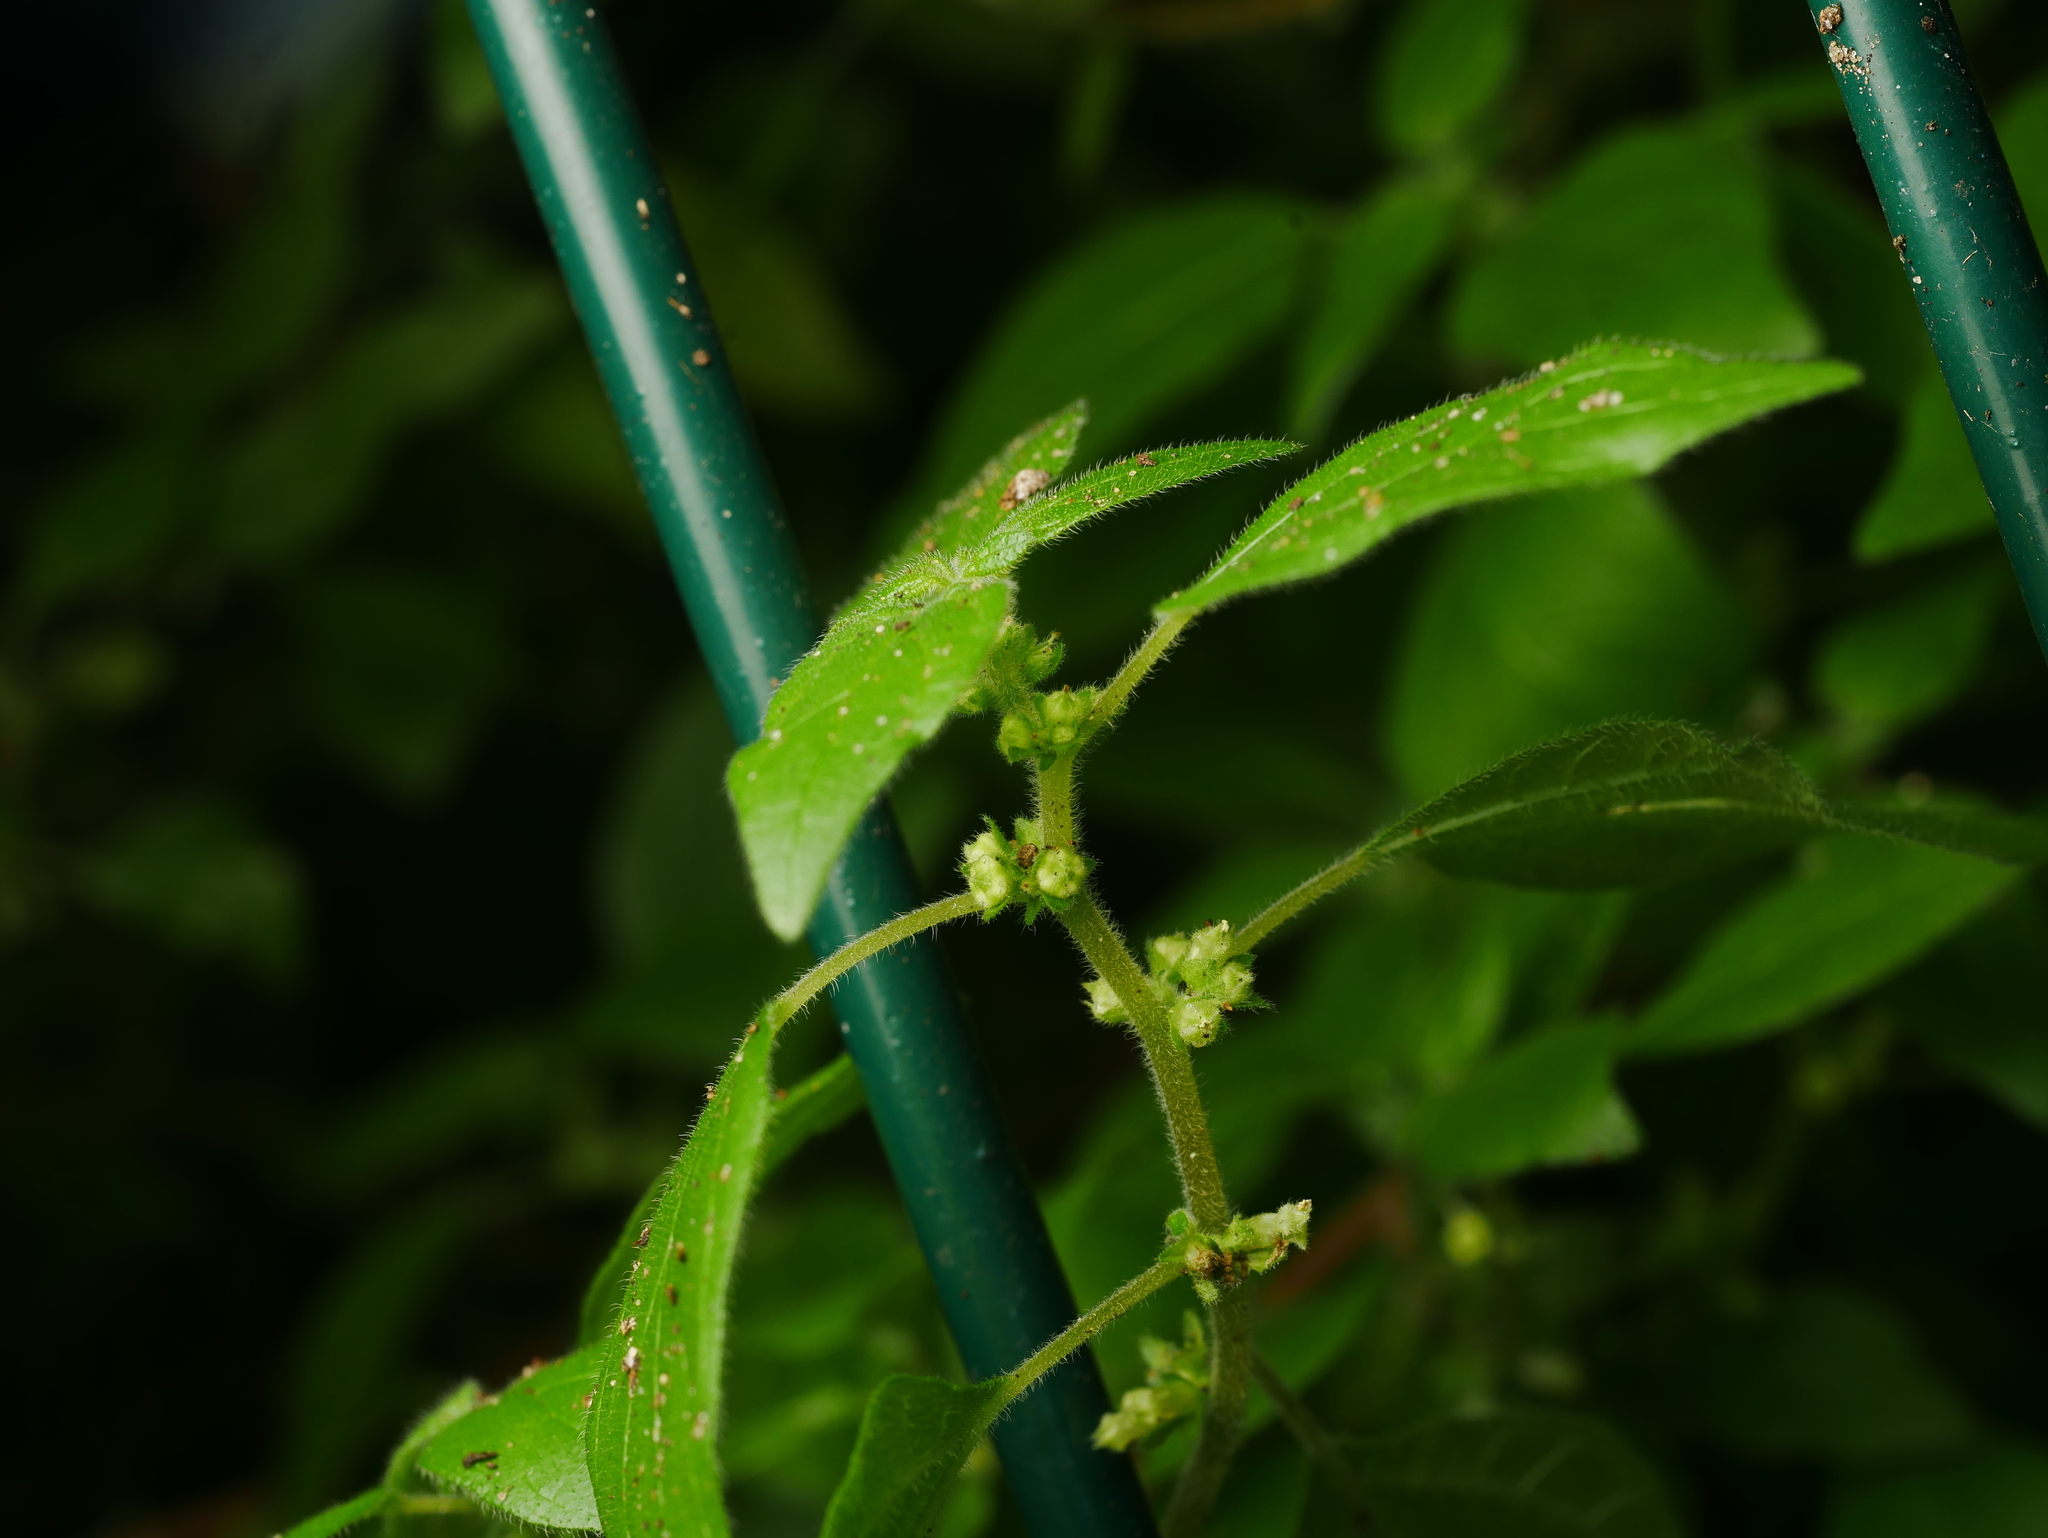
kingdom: Plantae
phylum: Tracheophyta
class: Magnoliopsida
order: Rosales
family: Urticaceae
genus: Parietaria
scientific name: Parietaria officinalis
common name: Eastern pellitory-of-the-wall
